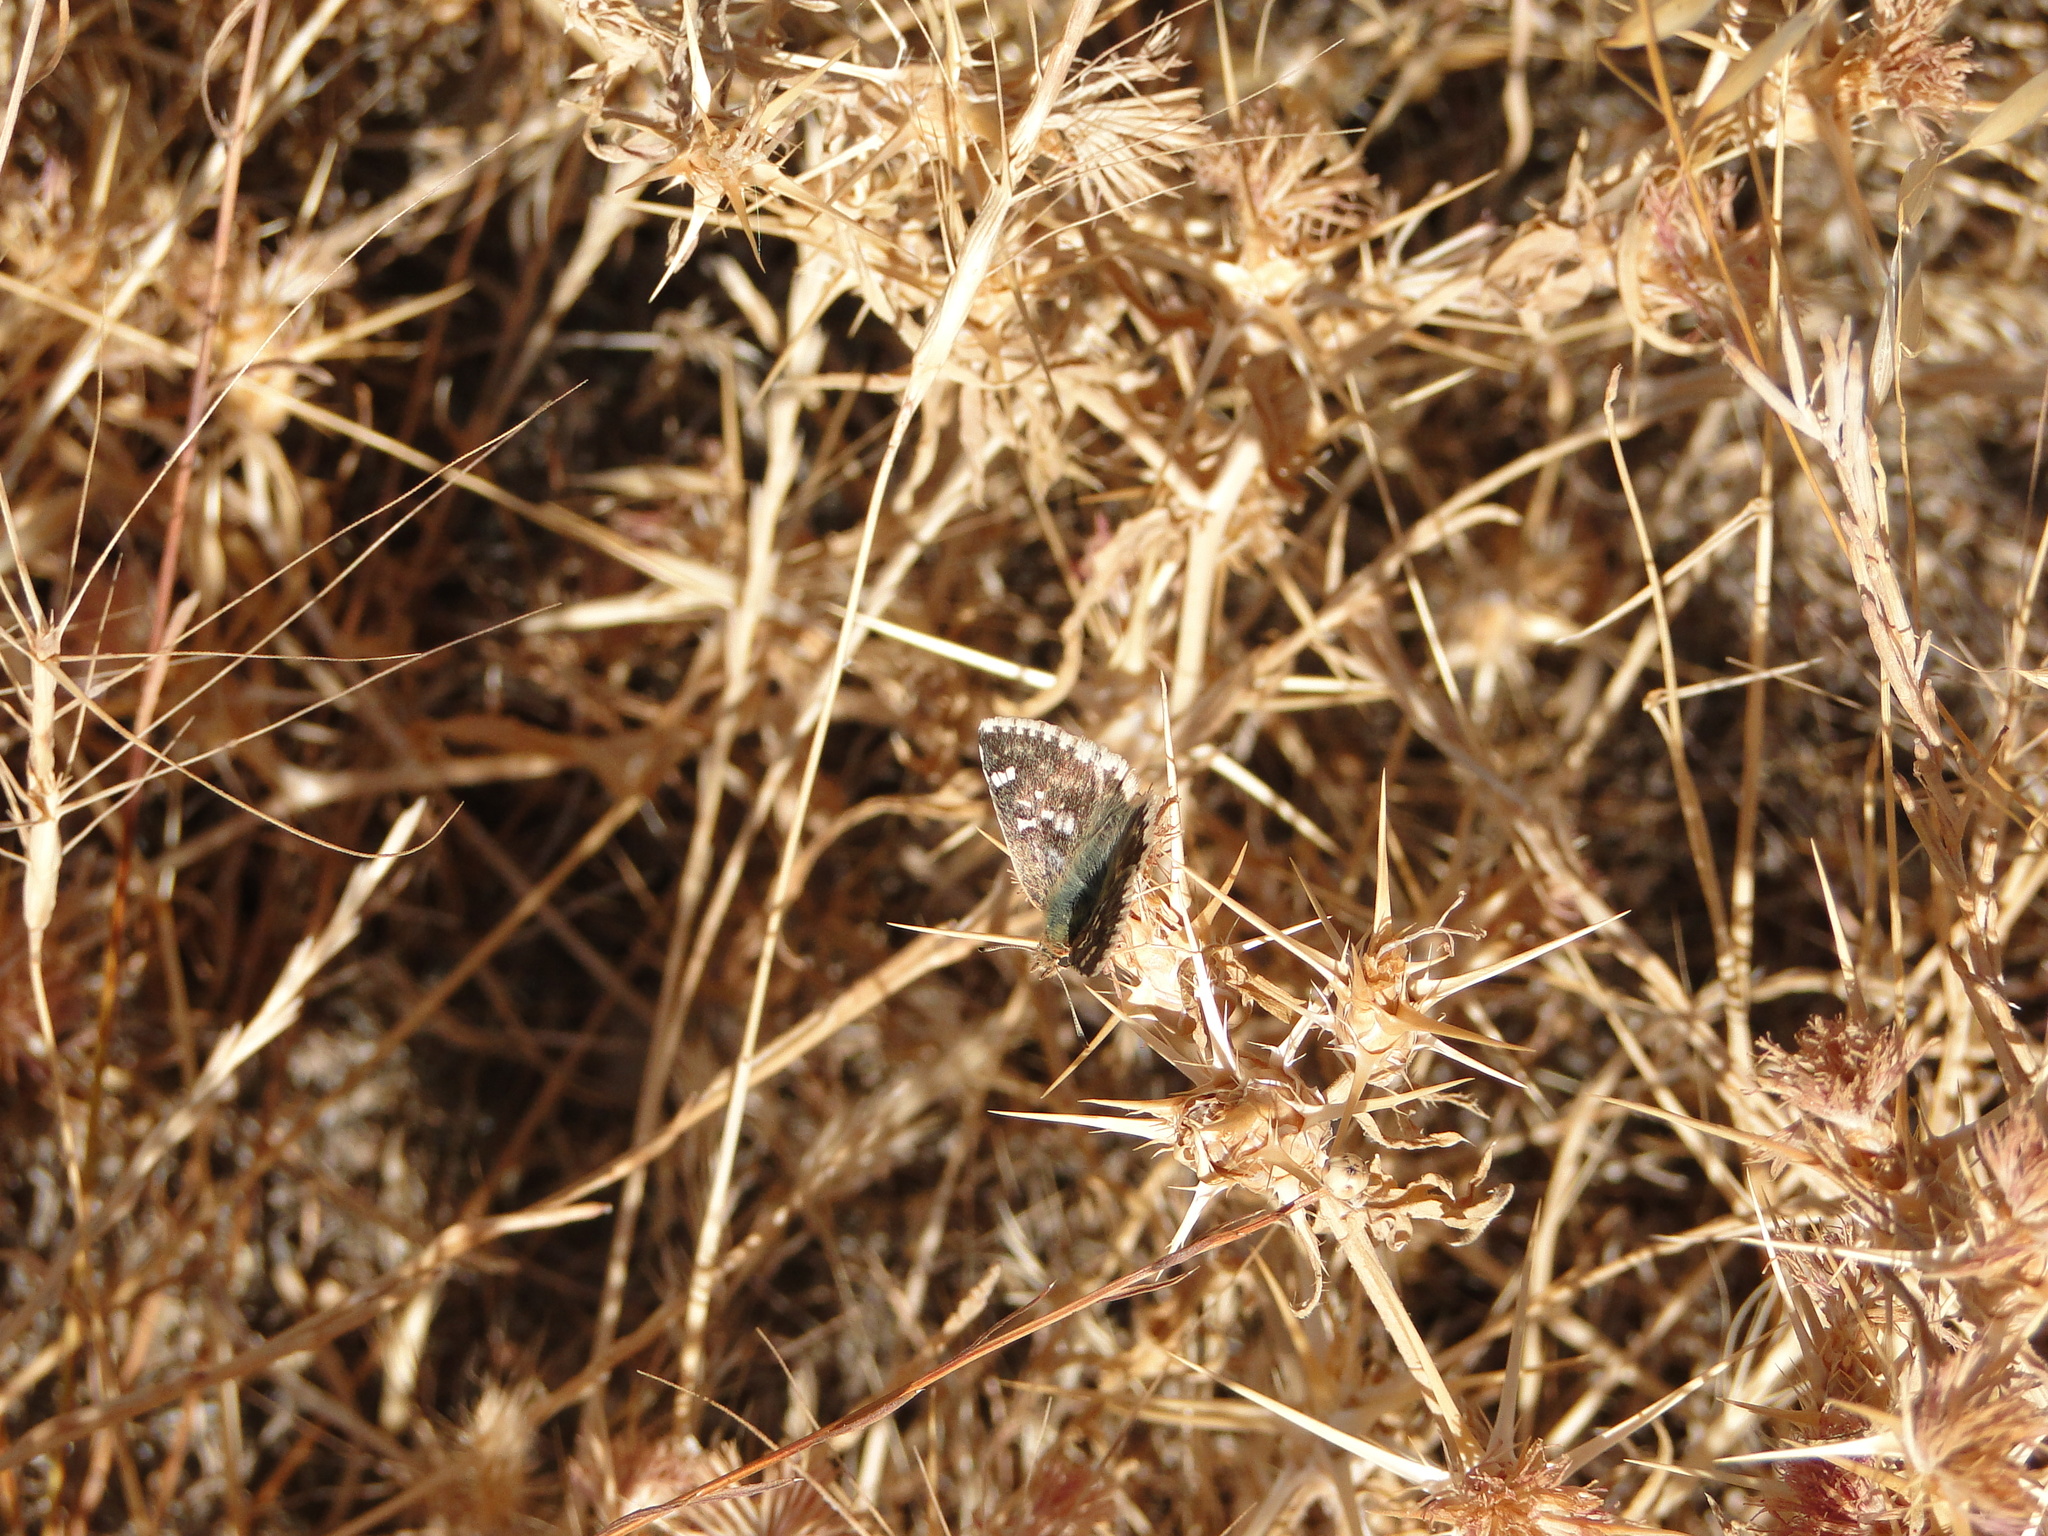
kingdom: Animalia
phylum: Arthropoda
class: Insecta
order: Lepidoptera
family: Hesperiidae
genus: Syrichtus
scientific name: Syrichtus Muschampia proto
